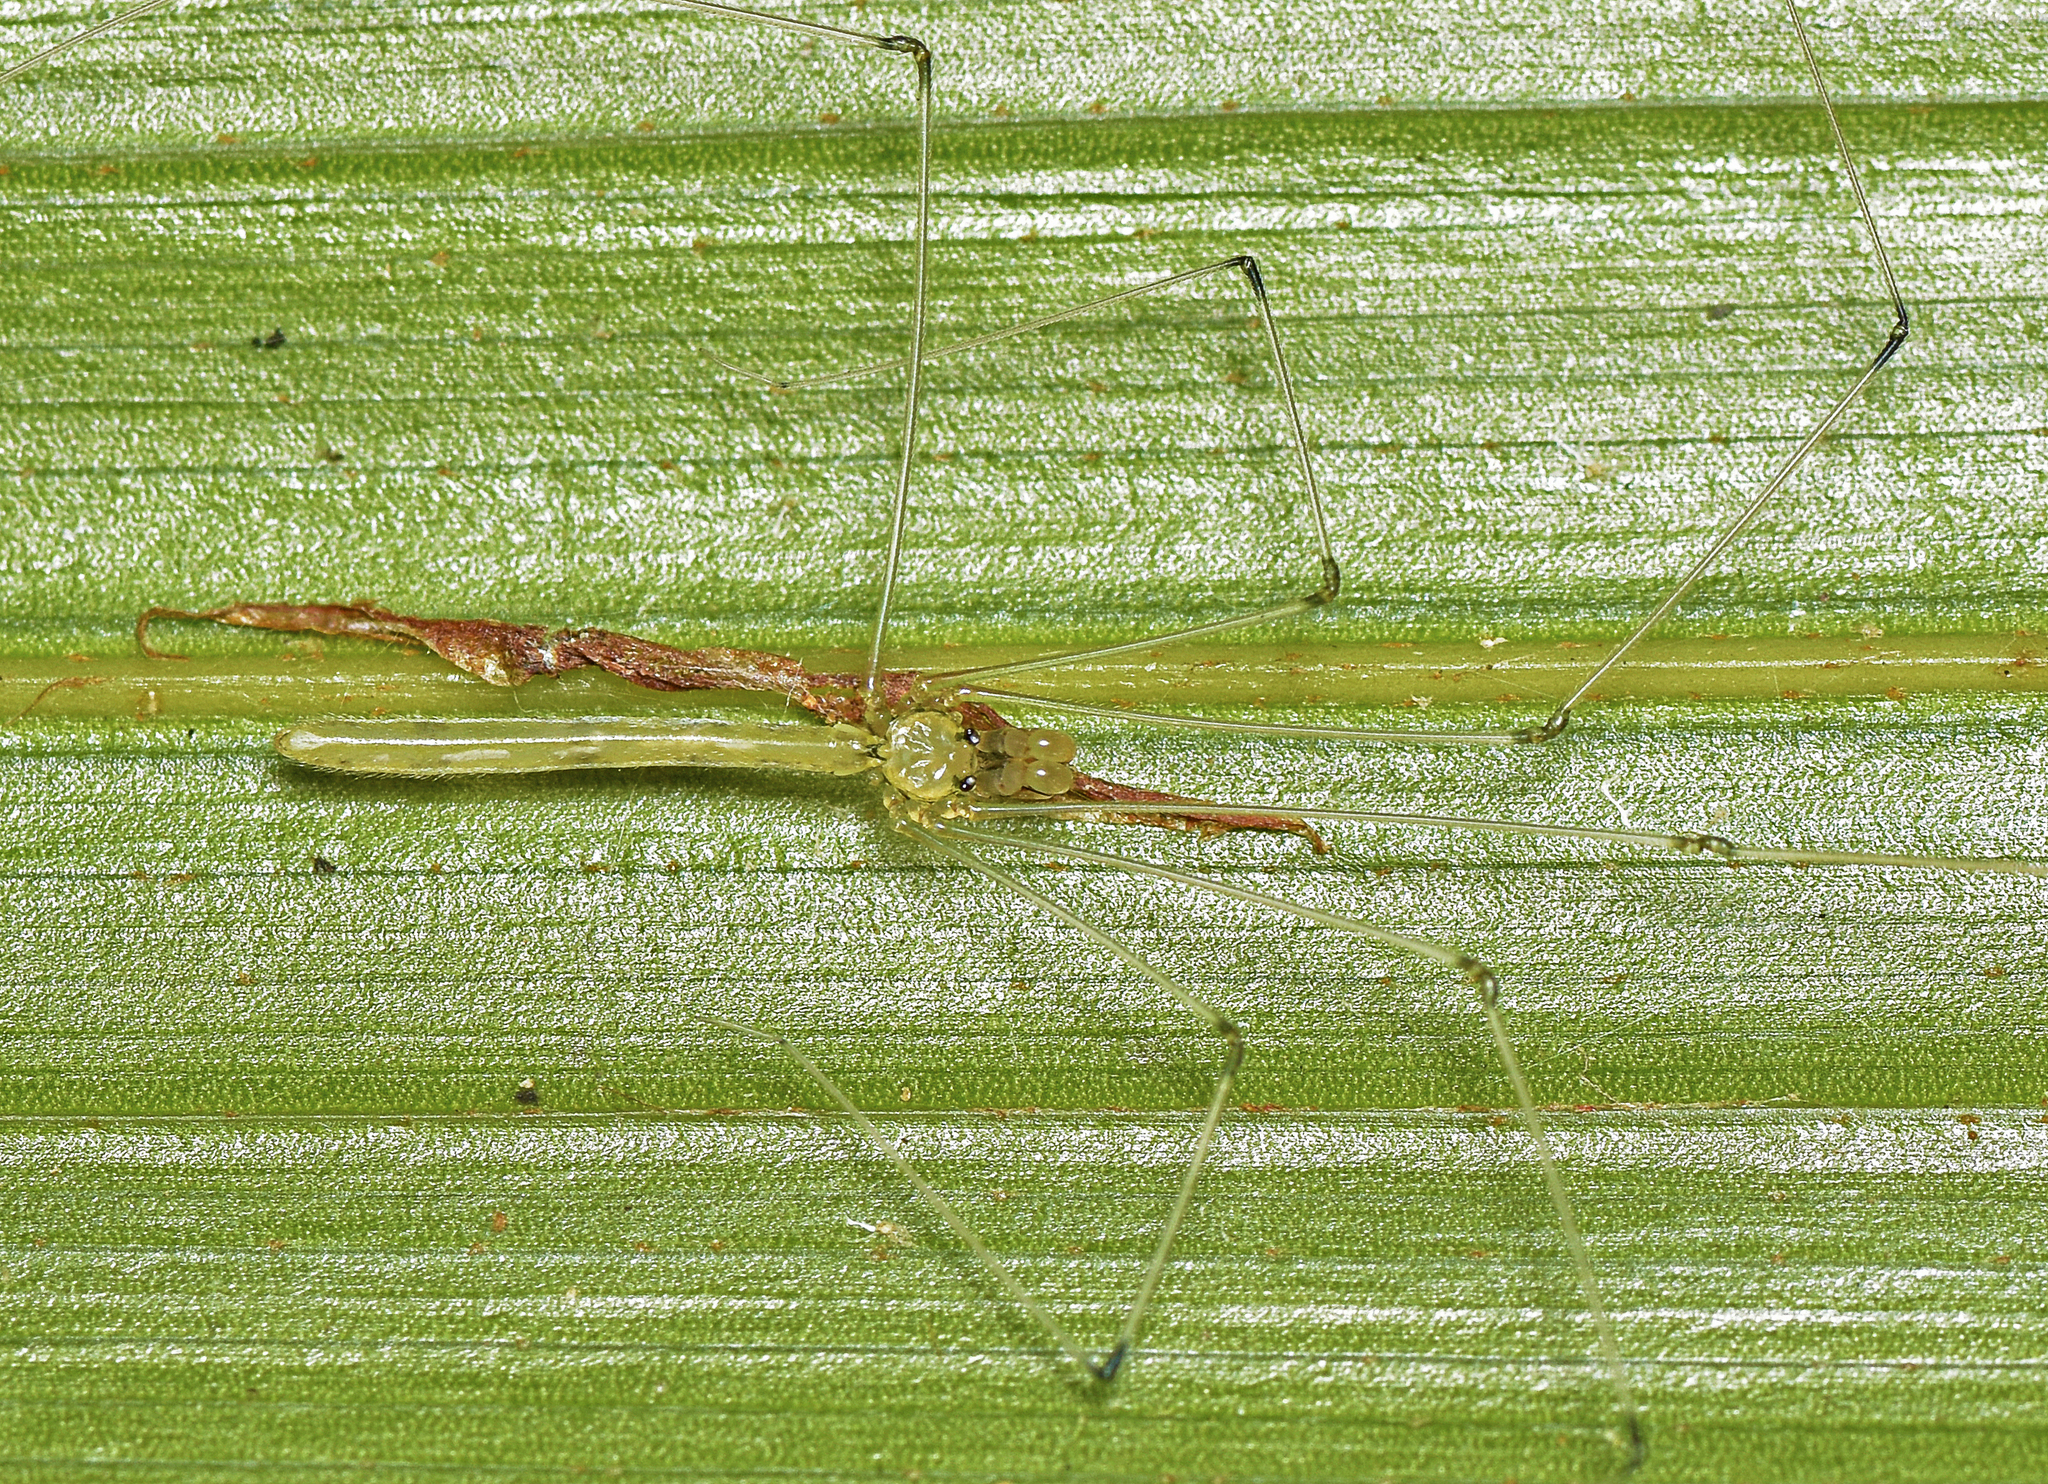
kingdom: Animalia
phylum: Arthropoda
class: Arachnida
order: Araneae
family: Pholcidae
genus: Micromerys
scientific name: Micromerys raveni
